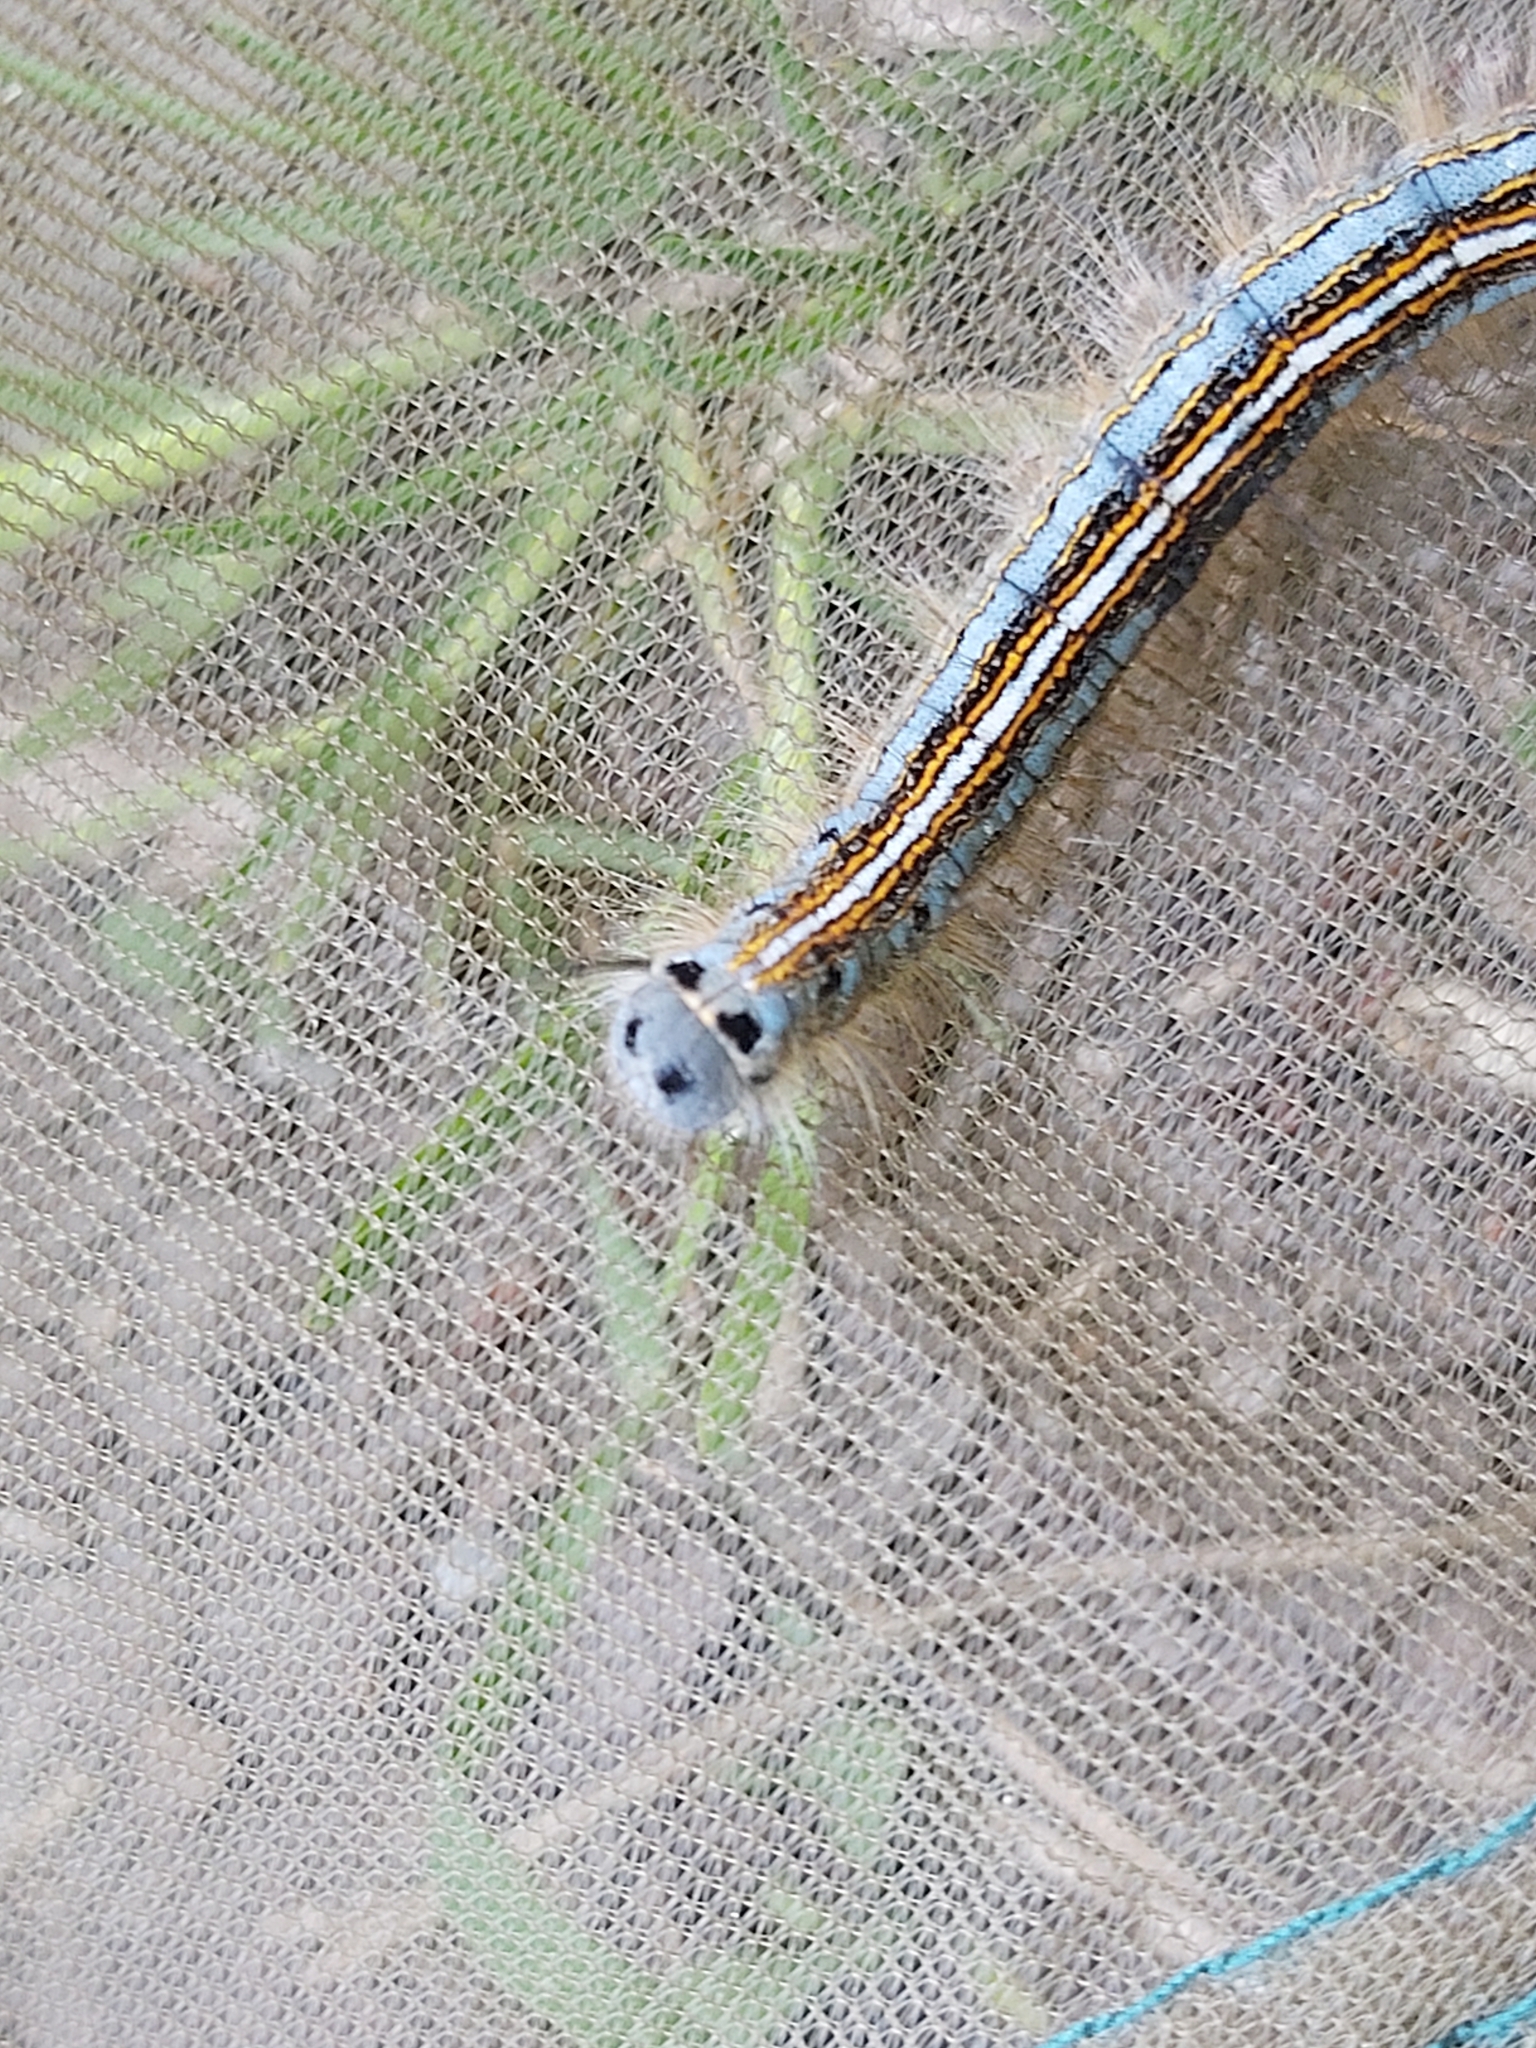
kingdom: Animalia
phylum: Arthropoda
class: Insecta
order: Lepidoptera
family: Lasiocampidae
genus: Malacosoma
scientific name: Malacosoma neustria
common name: The lackey
